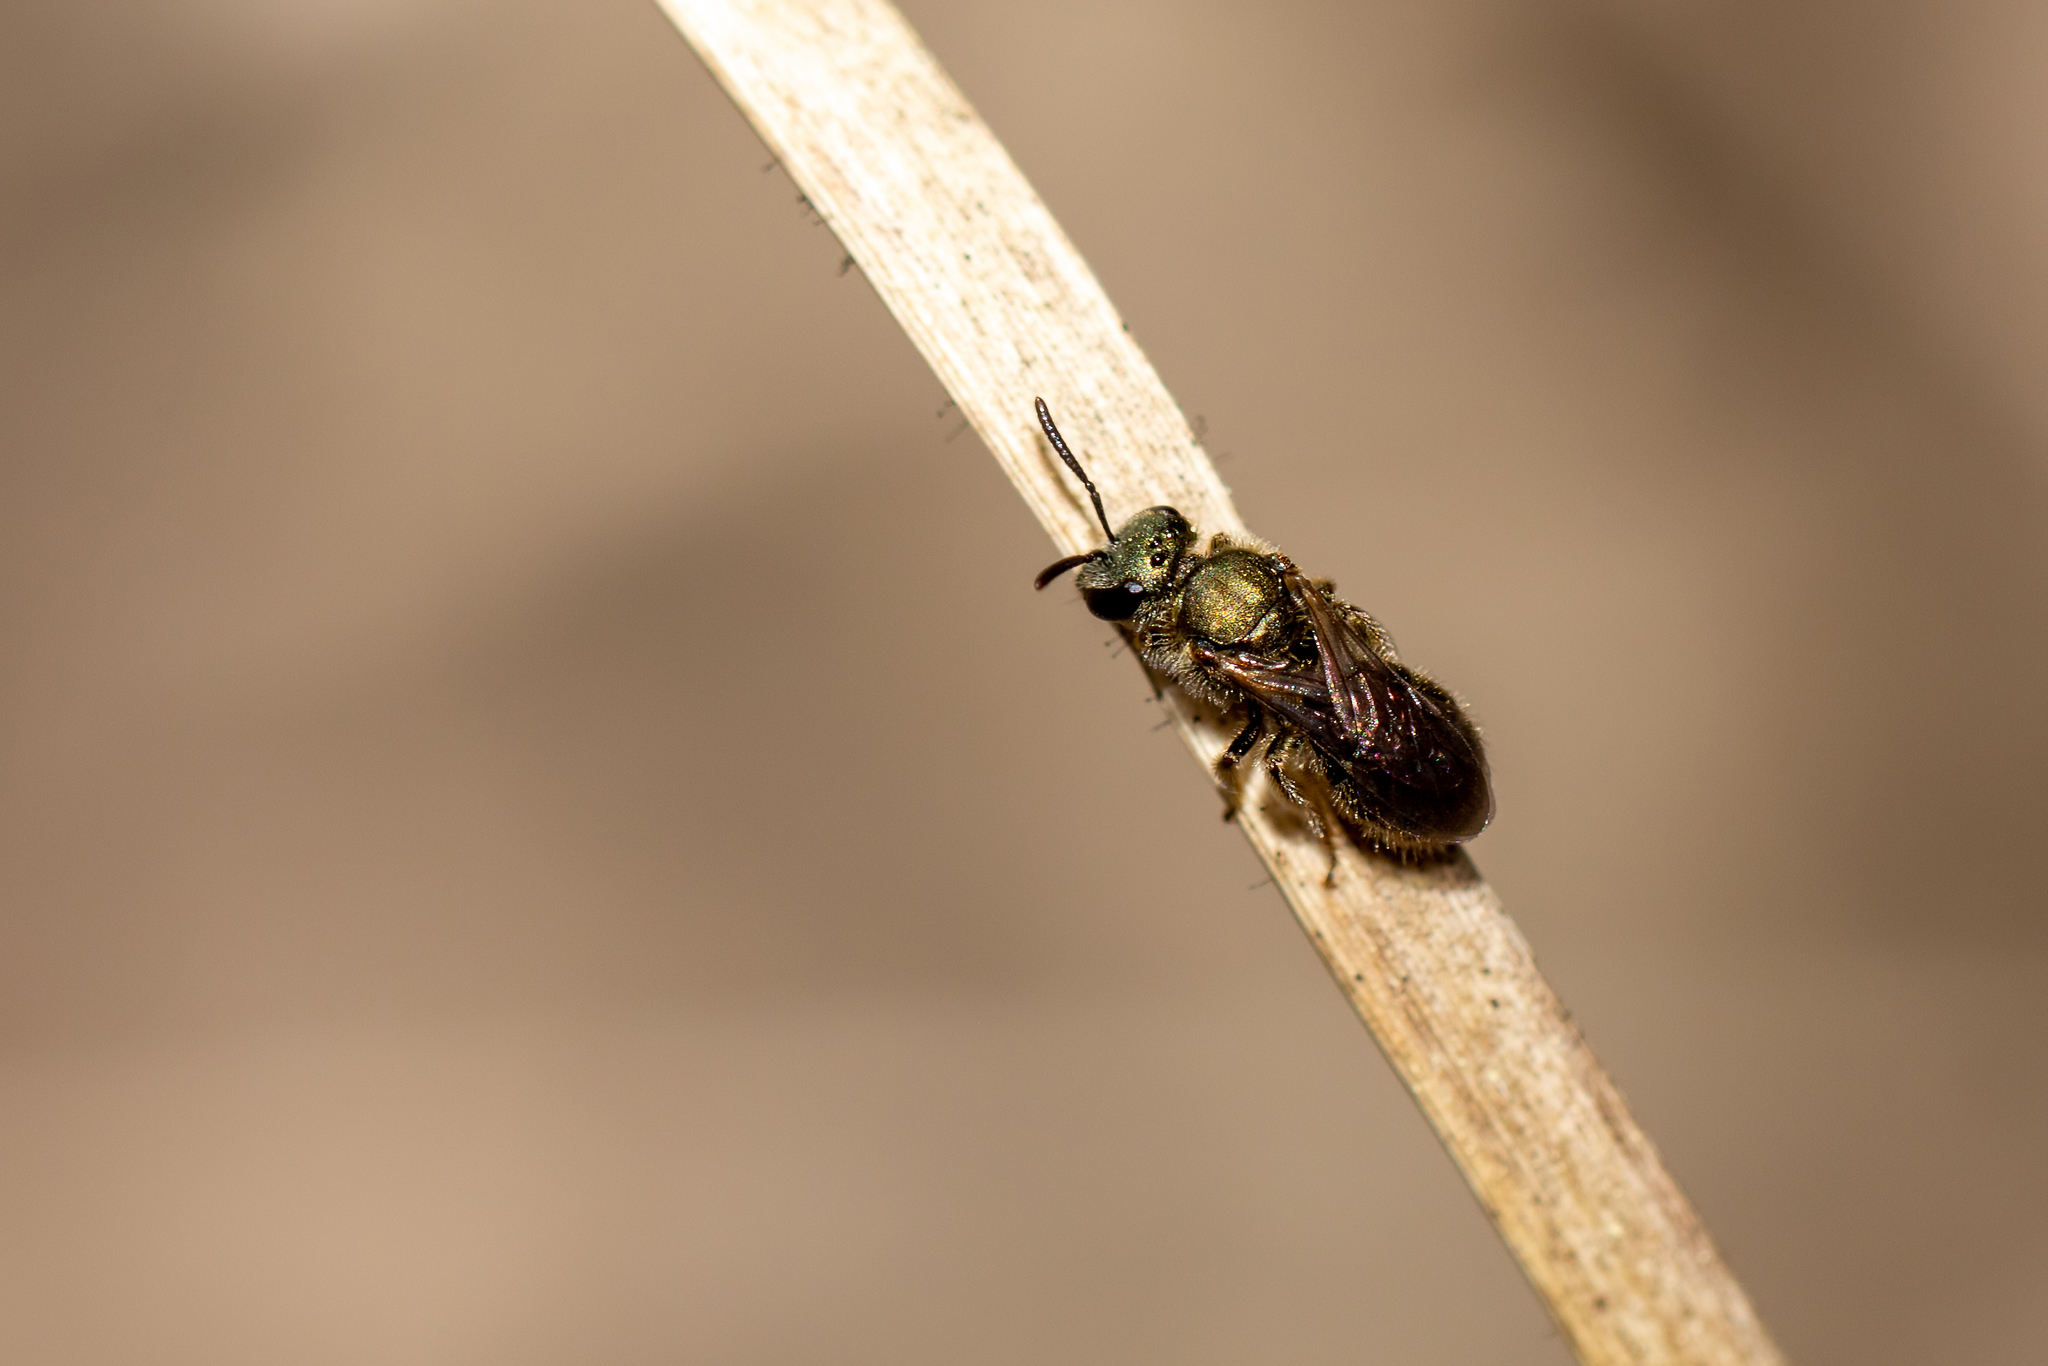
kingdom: Animalia
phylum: Arthropoda
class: Insecta
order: Hymenoptera
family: Halictidae
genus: Lasioglossum
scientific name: Lasioglossum batya
